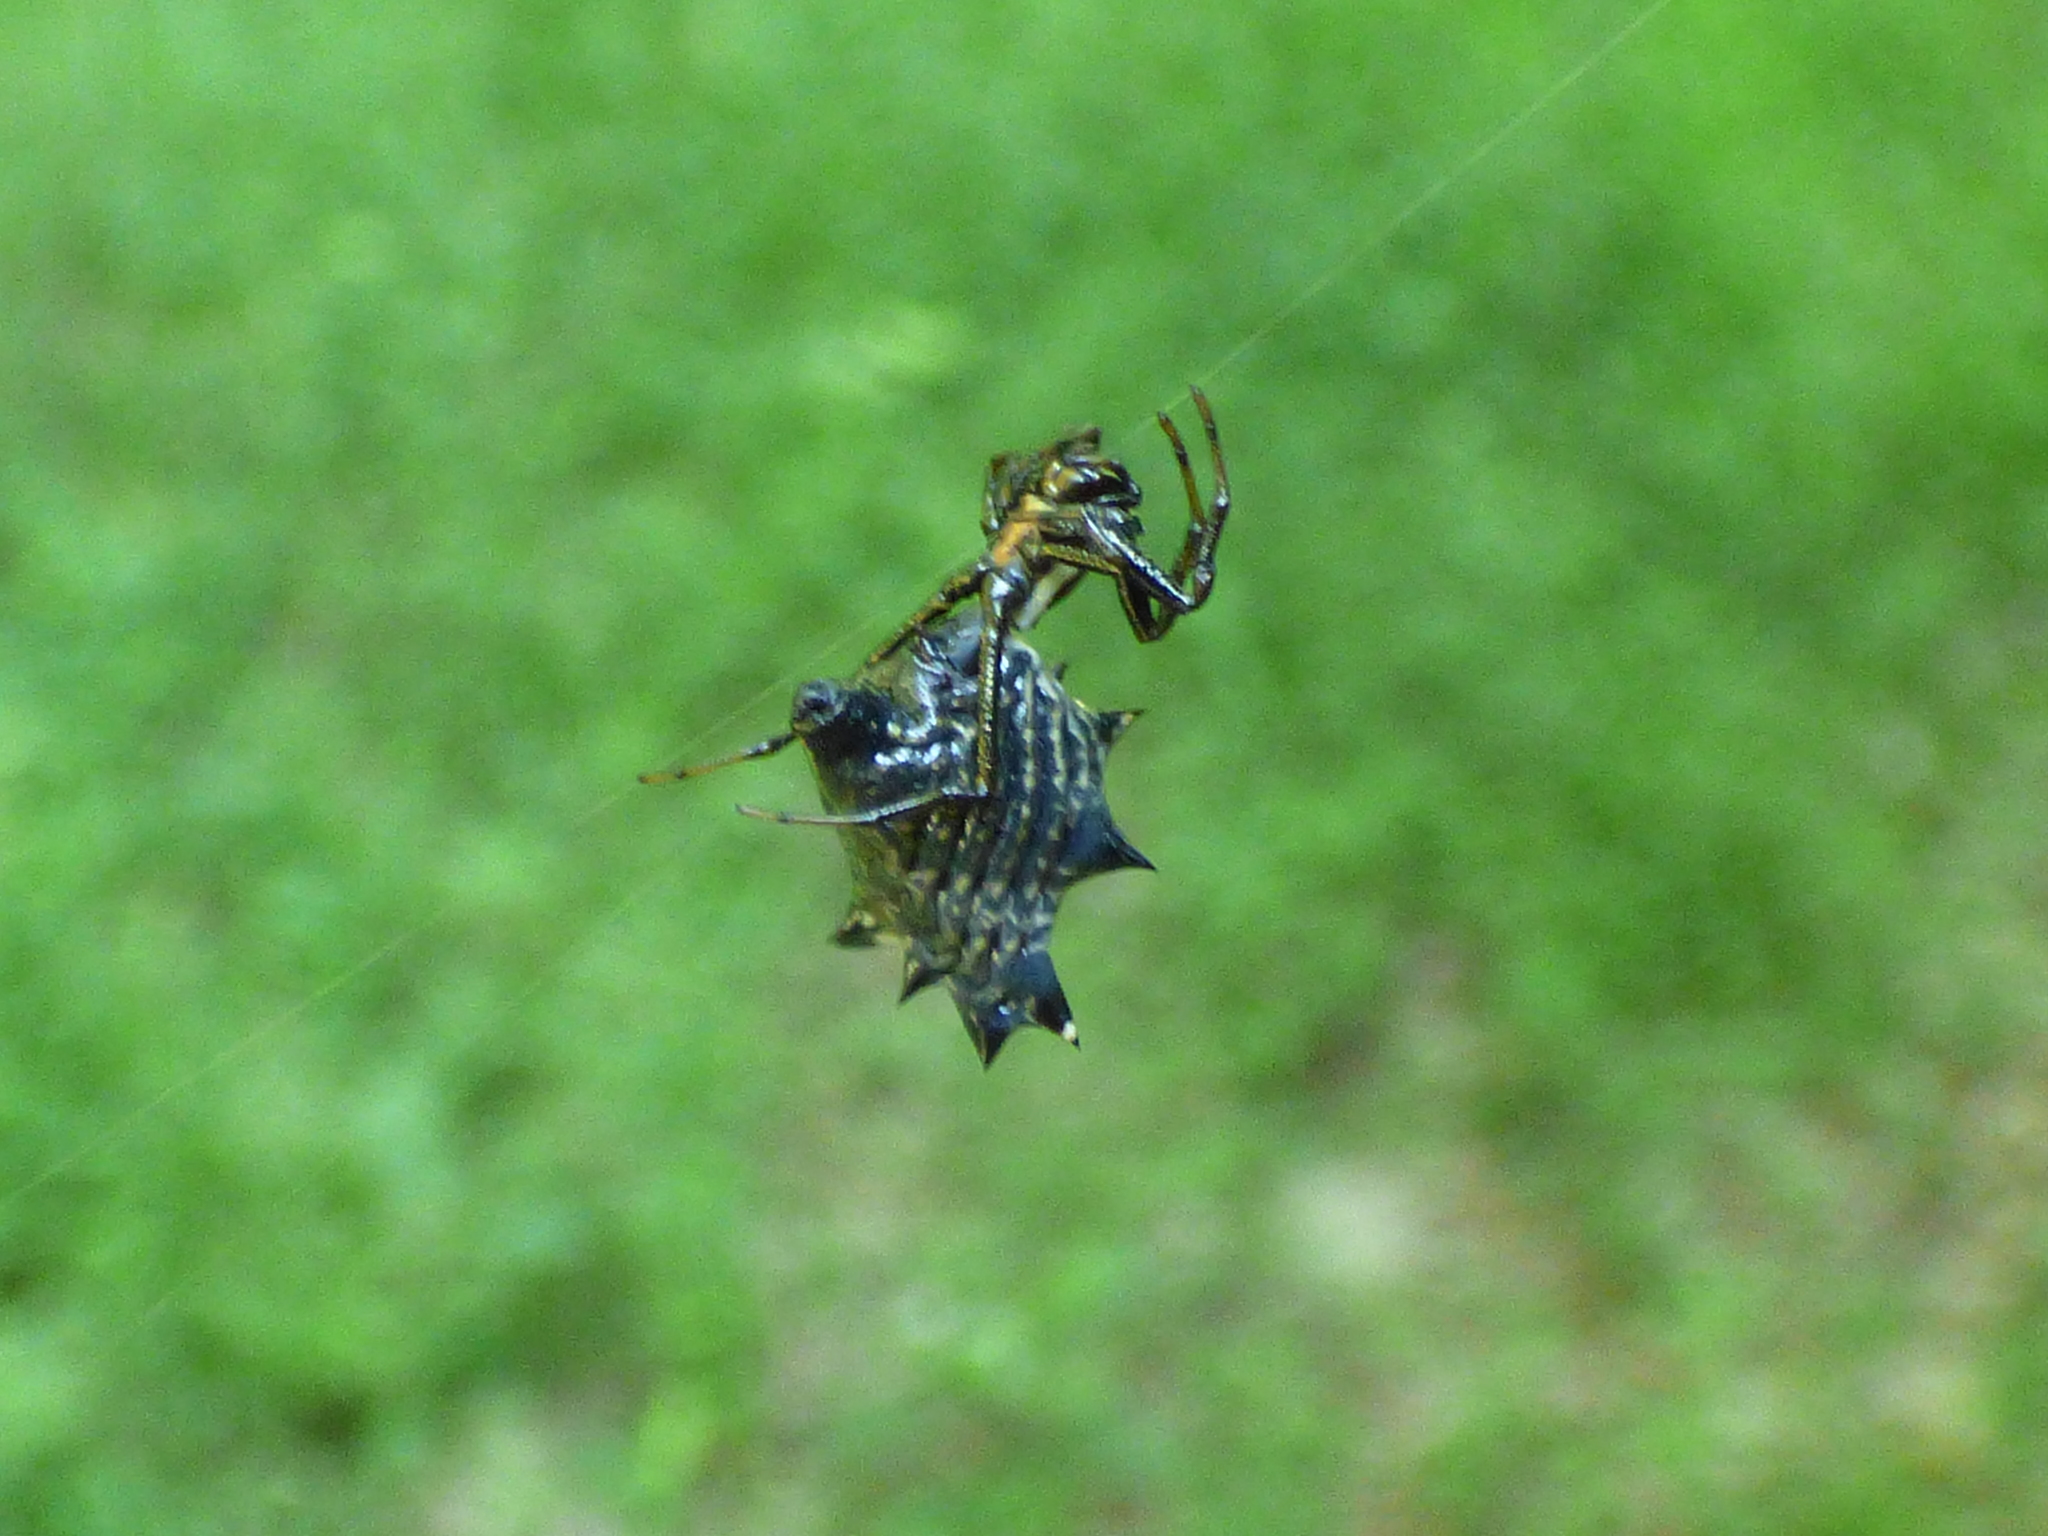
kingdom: Animalia
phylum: Arthropoda
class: Arachnida
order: Araneae
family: Araneidae
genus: Micrathena
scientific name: Micrathena gracilis
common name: Orb weavers
